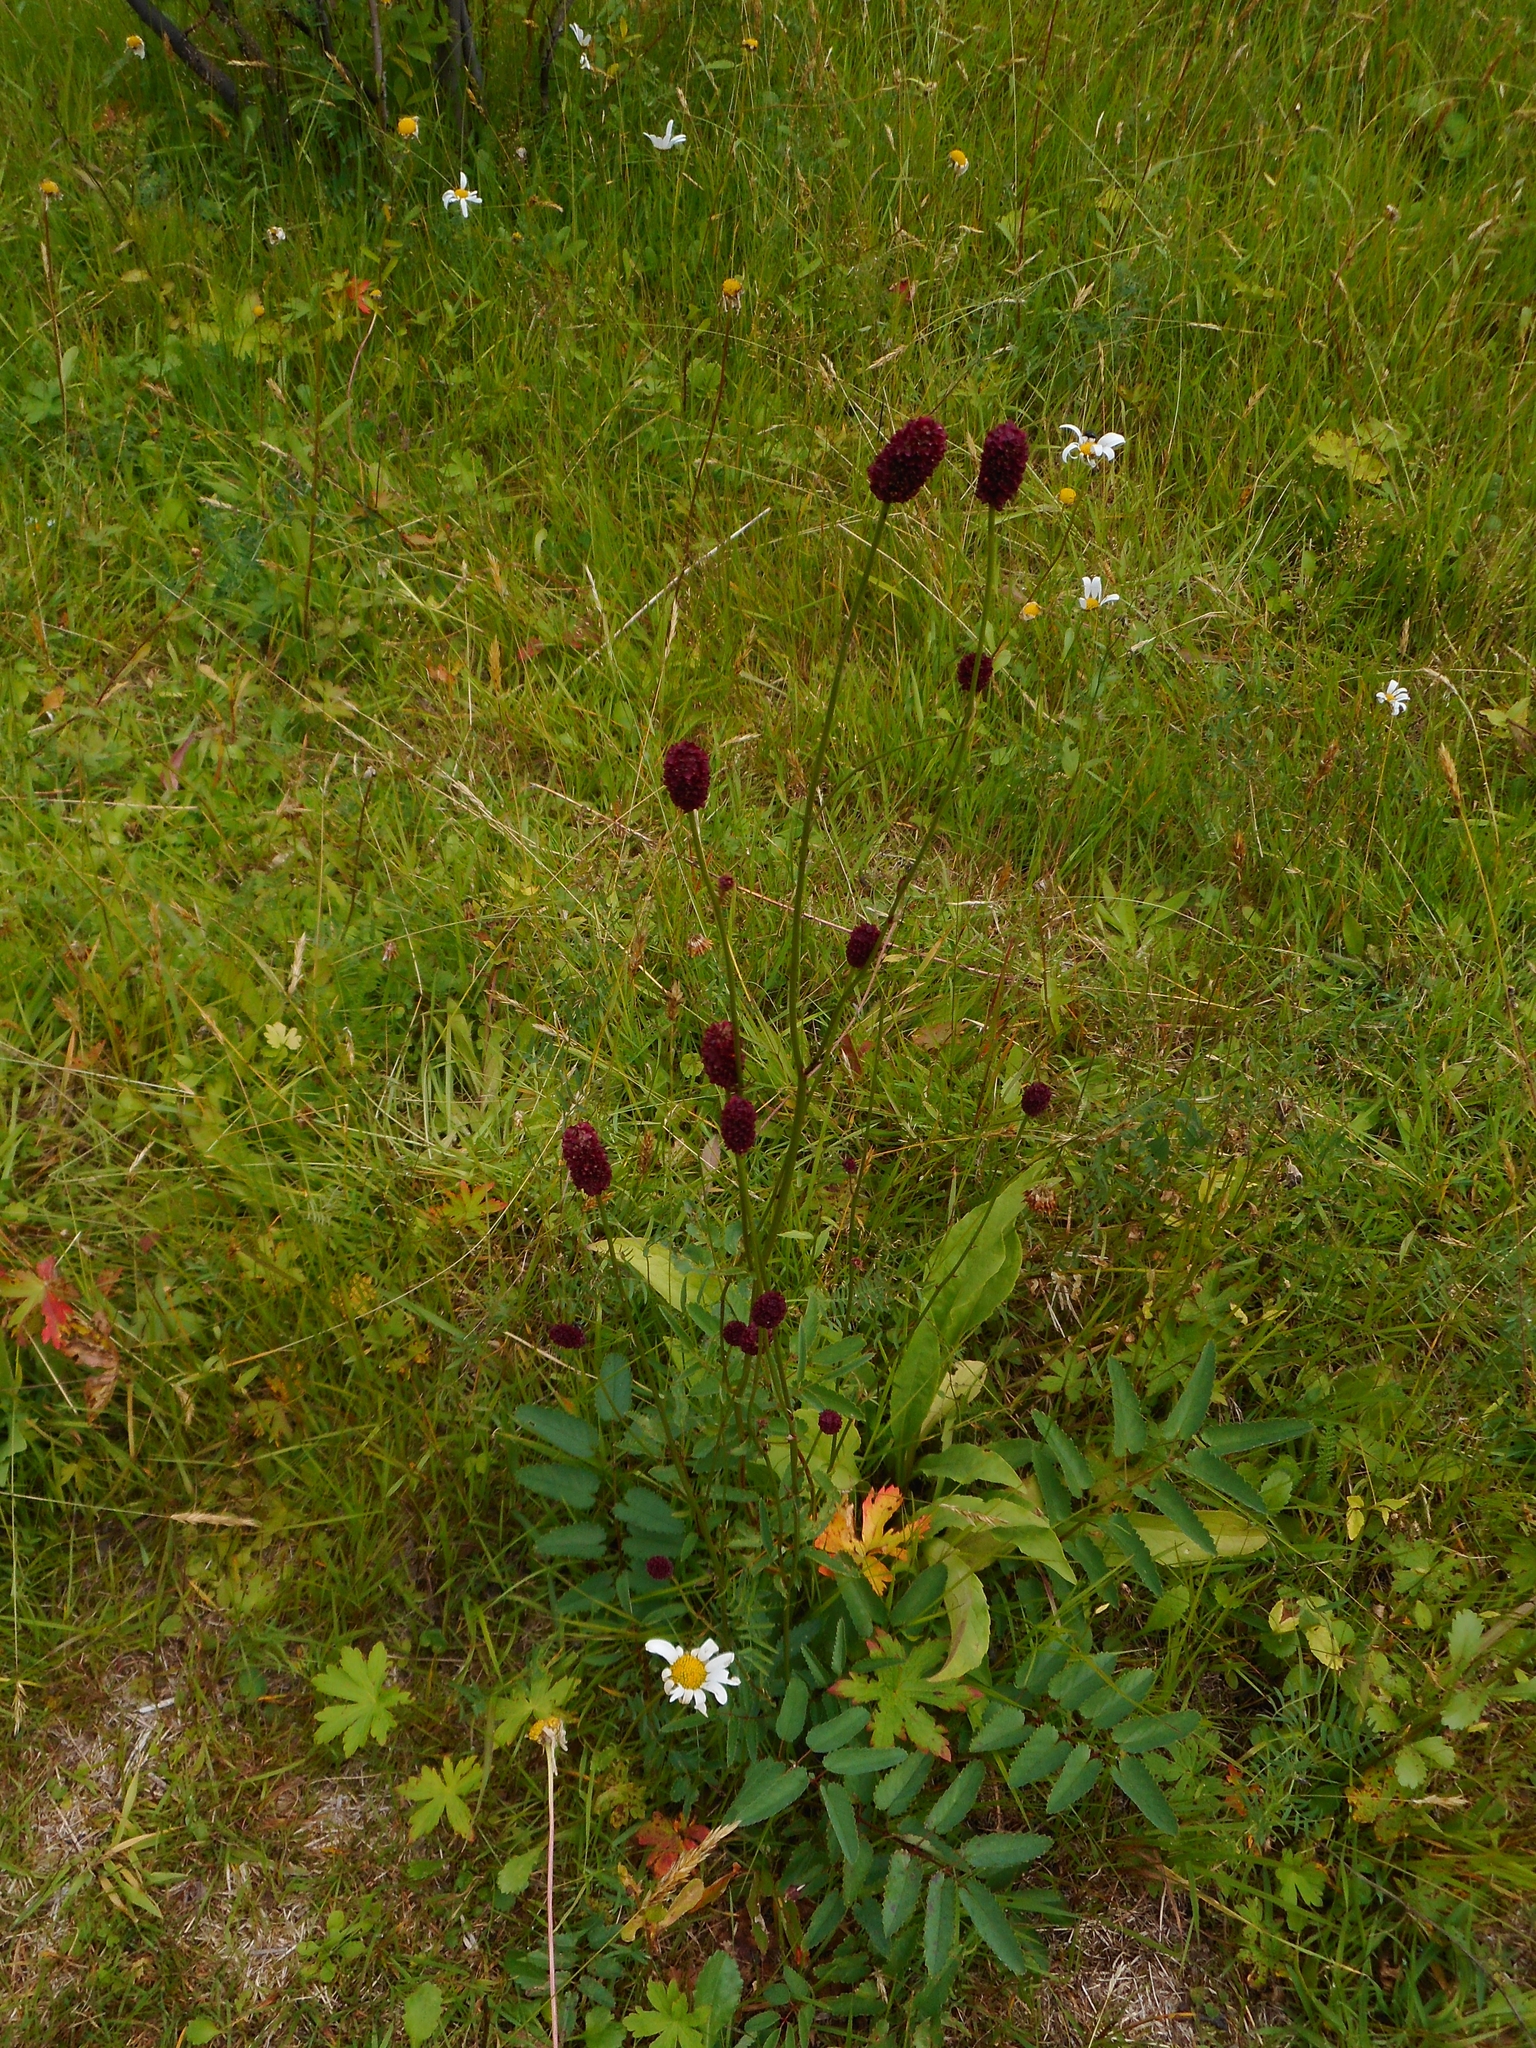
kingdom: Plantae
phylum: Tracheophyta
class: Magnoliopsida
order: Rosales
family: Rosaceae
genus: Sanguisorba
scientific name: Sanguisorba officinalis
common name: Great burnet
